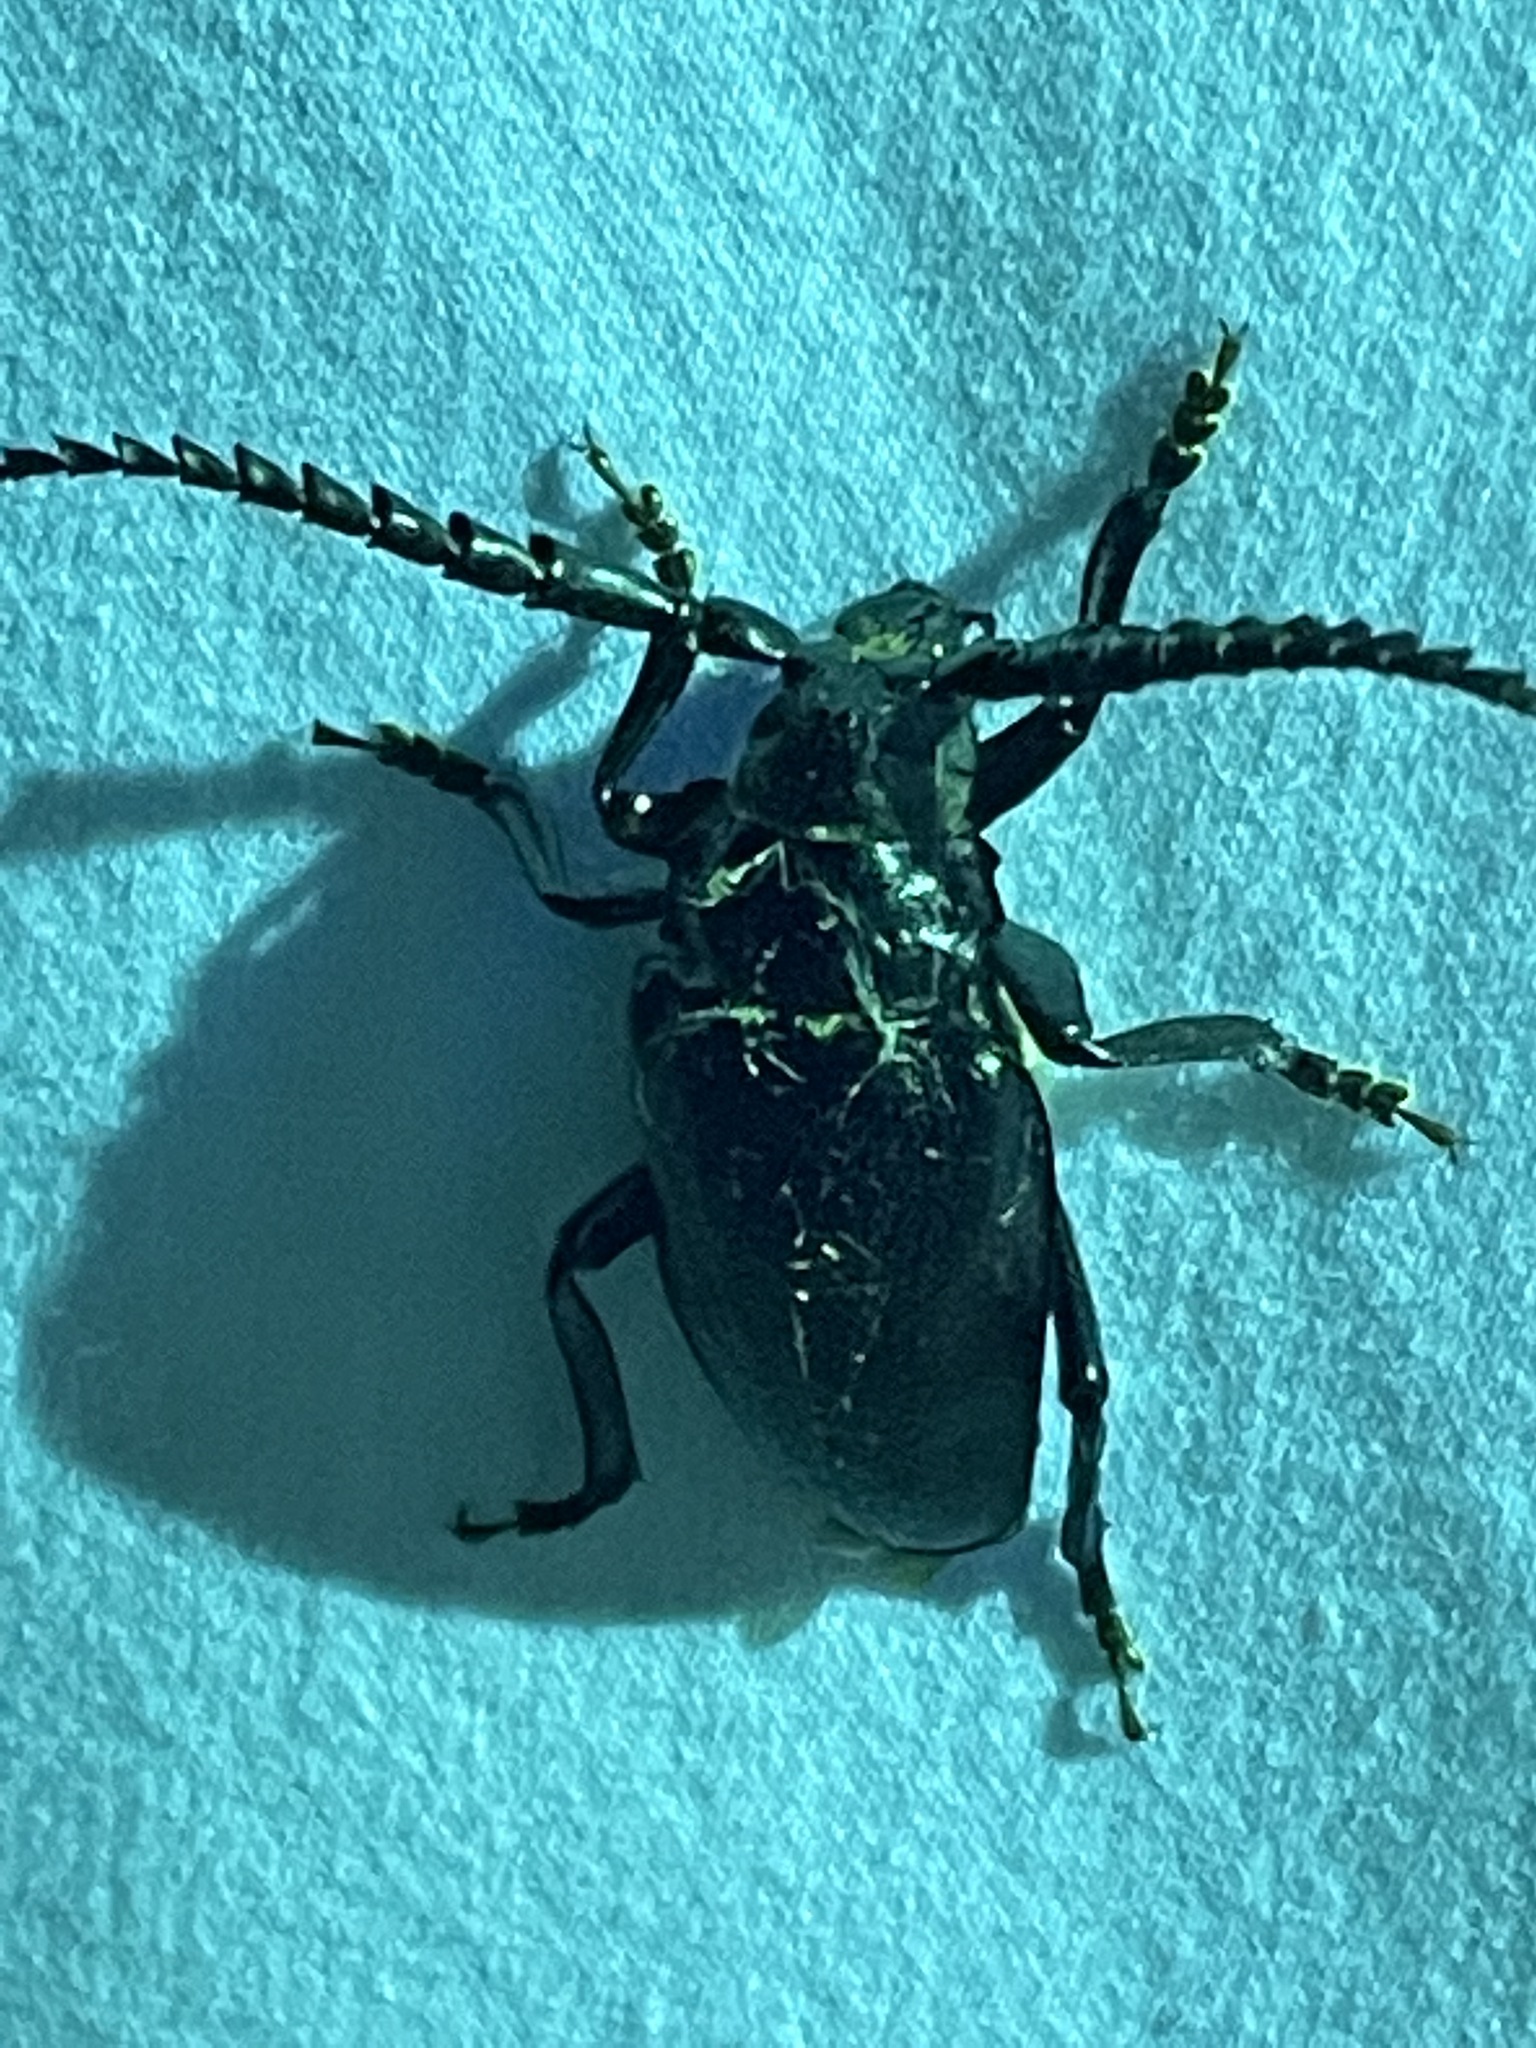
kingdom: Animalia
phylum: Arthropoda
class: Insecta
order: Coleoptera
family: Cerambycidae
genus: Prionus
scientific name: Prionus laticollis
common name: Broad necked prionus
